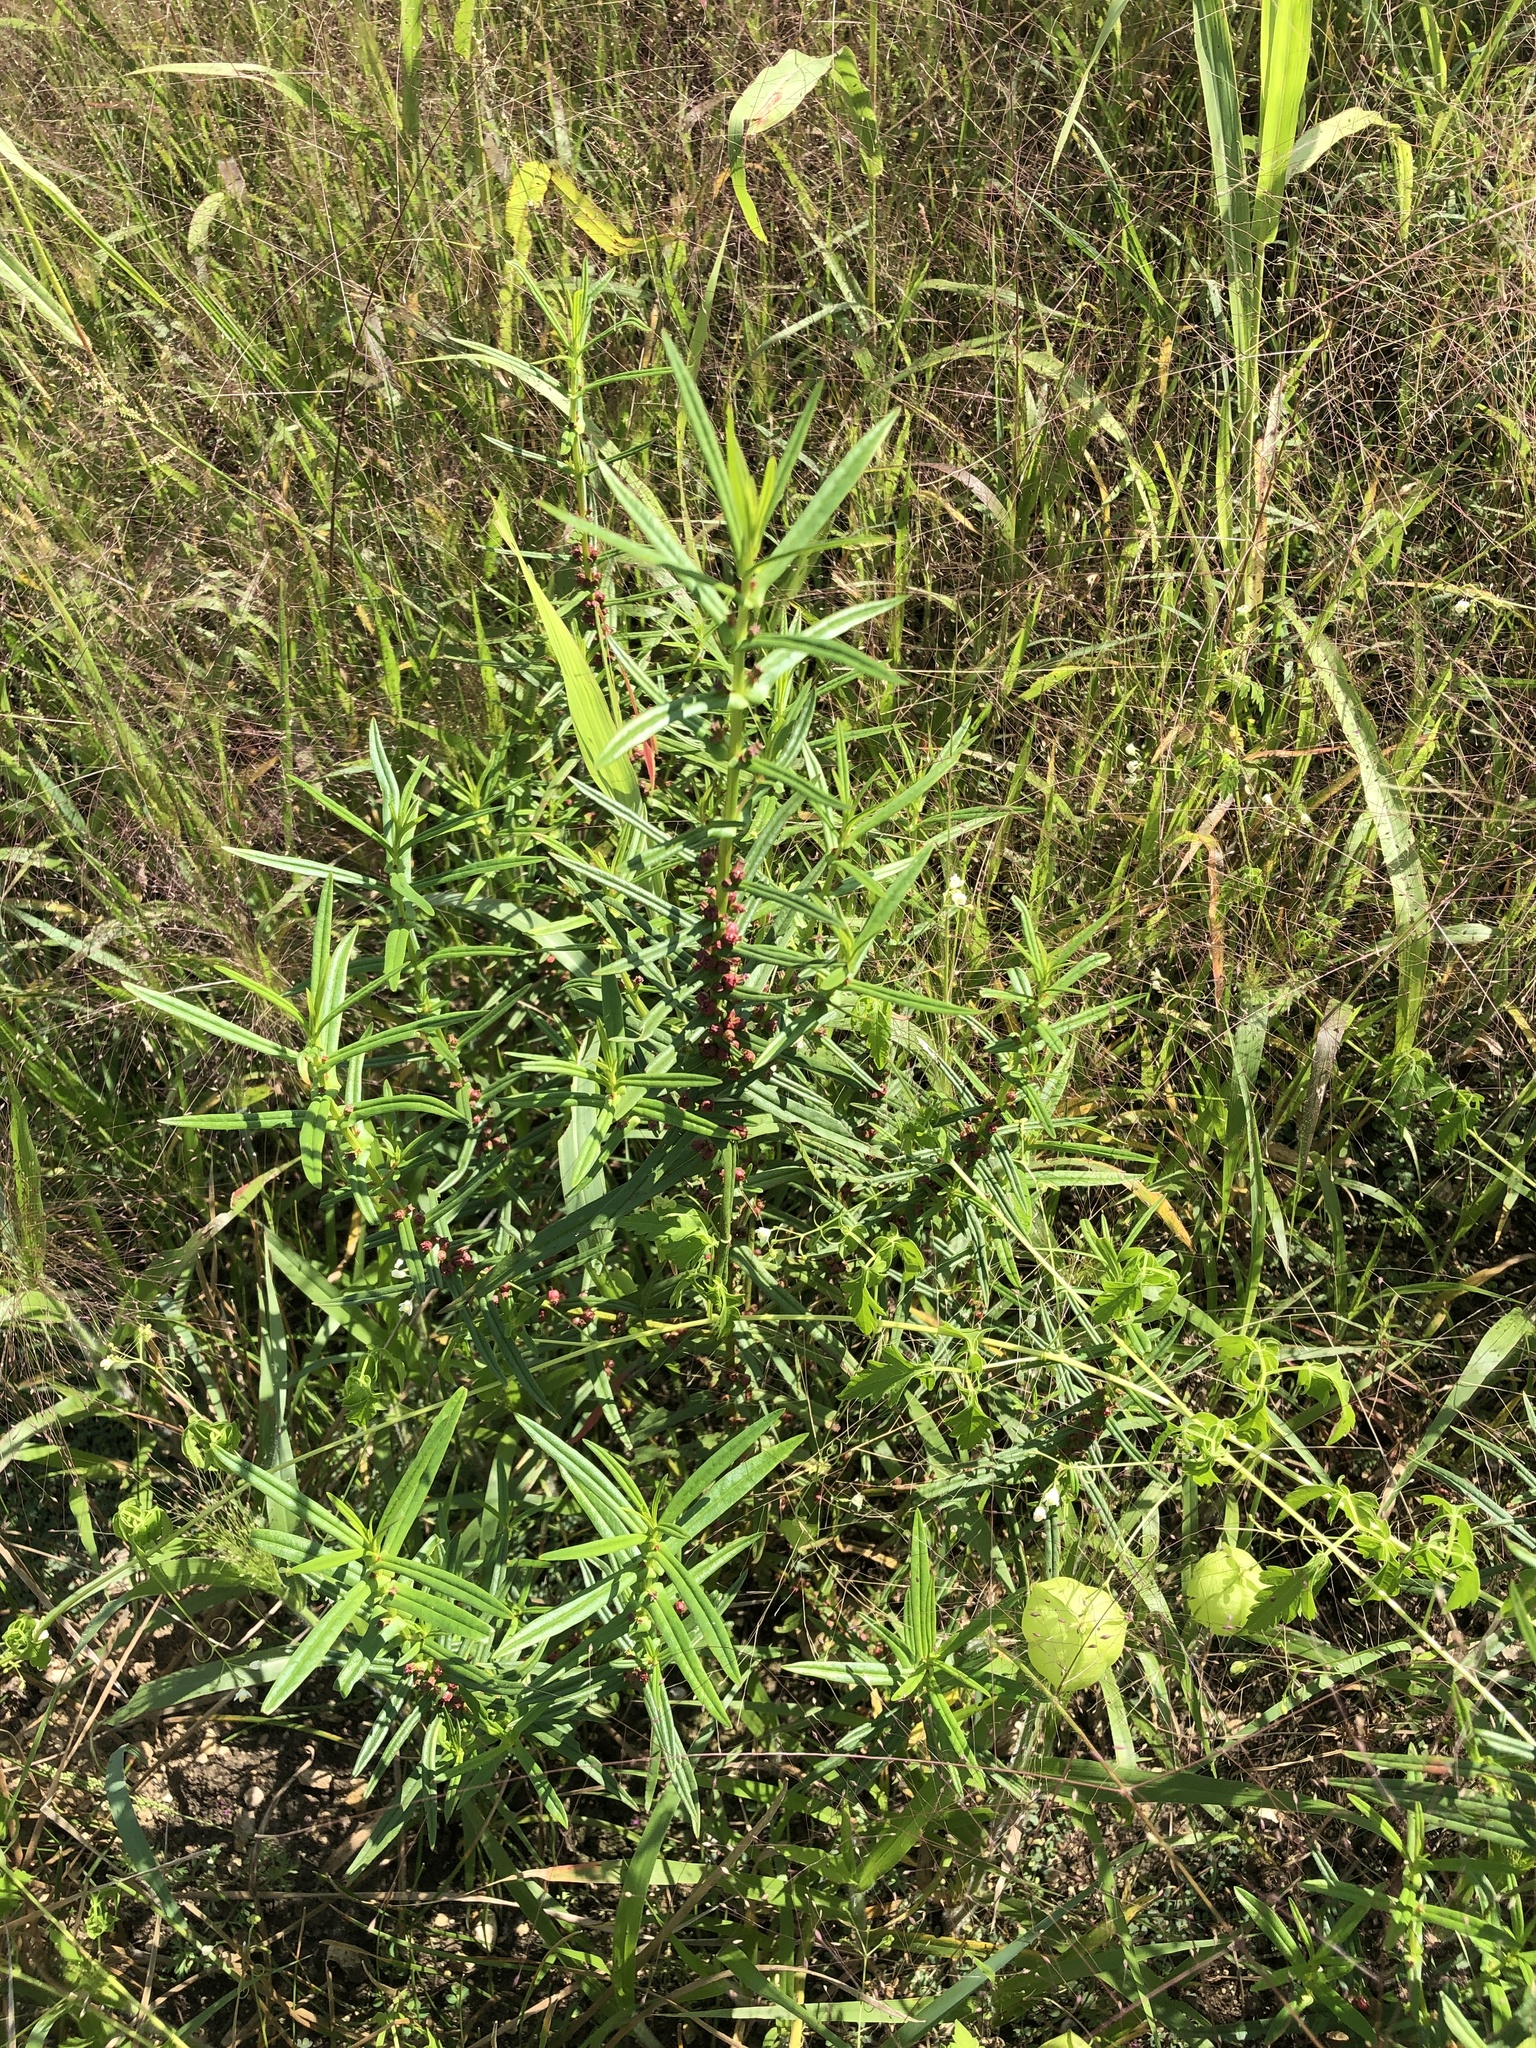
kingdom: Plantae
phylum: Tracheophyta
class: Magnoliopsida
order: Myrtales
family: Lythraceae
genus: Ammannia
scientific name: Ammannia coccinea
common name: Valley redstem
